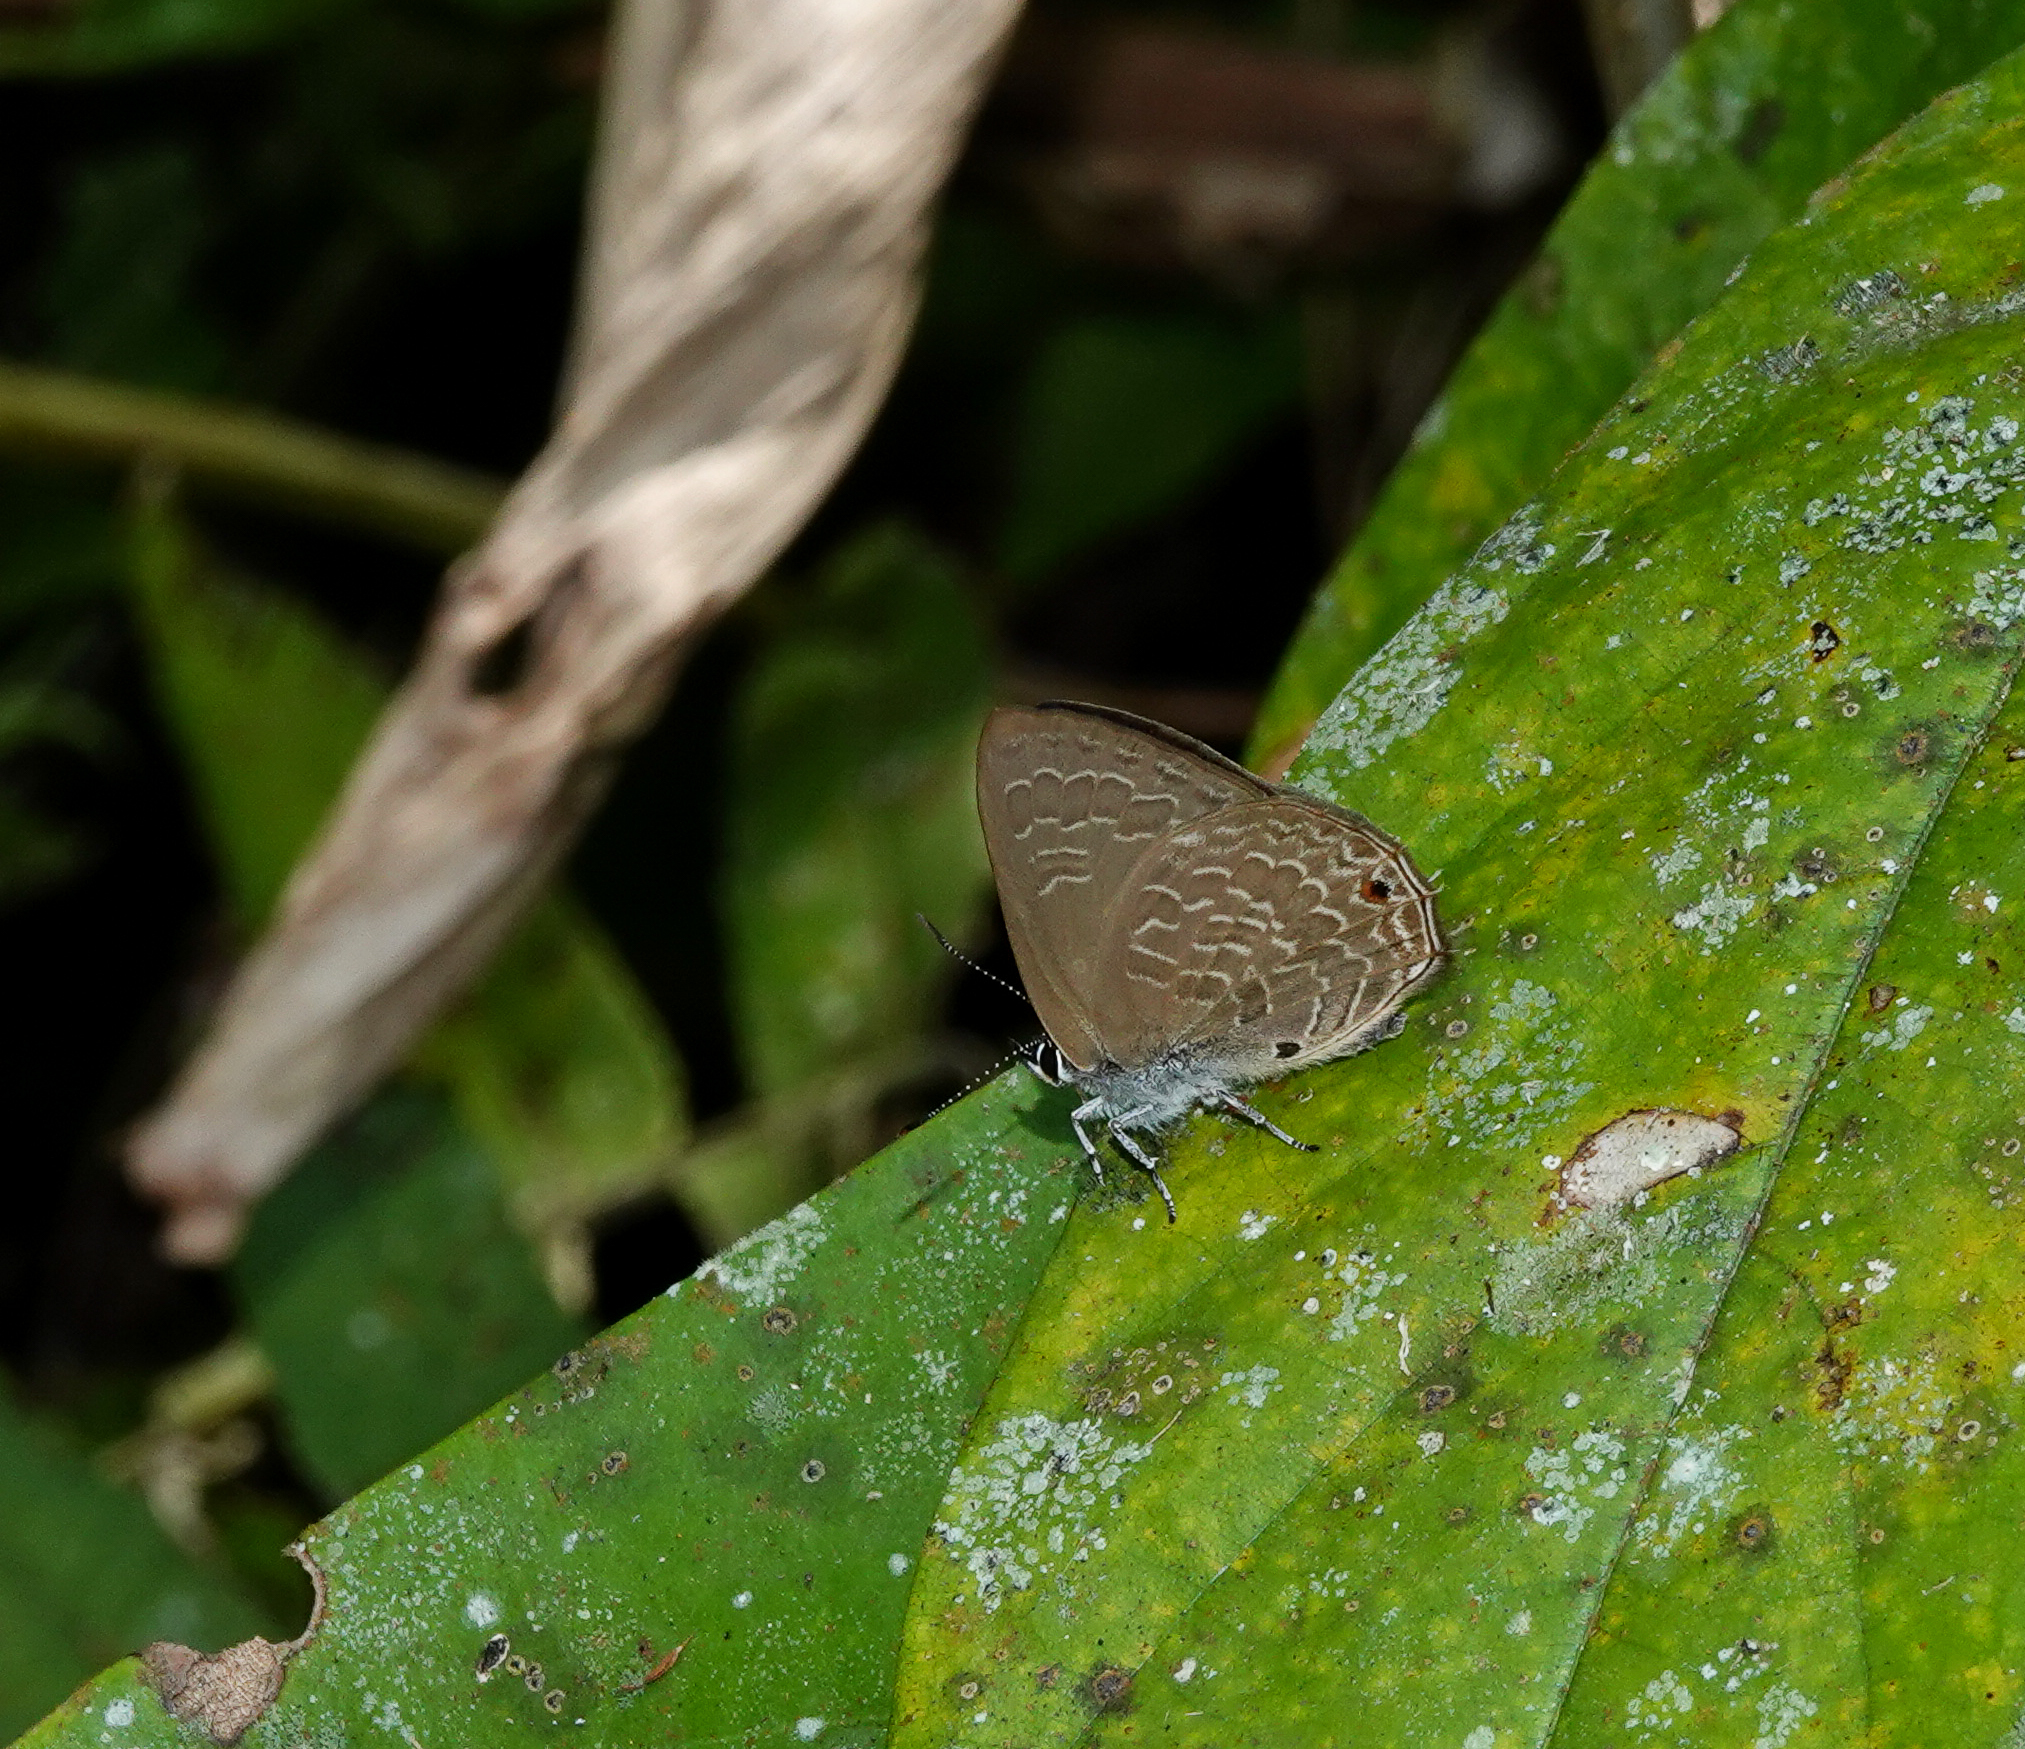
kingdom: Animalia
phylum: Arthropoda
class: Insecta
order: Lepidoptera
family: Lycaenidae
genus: Anthene
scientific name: Anthene emolus
